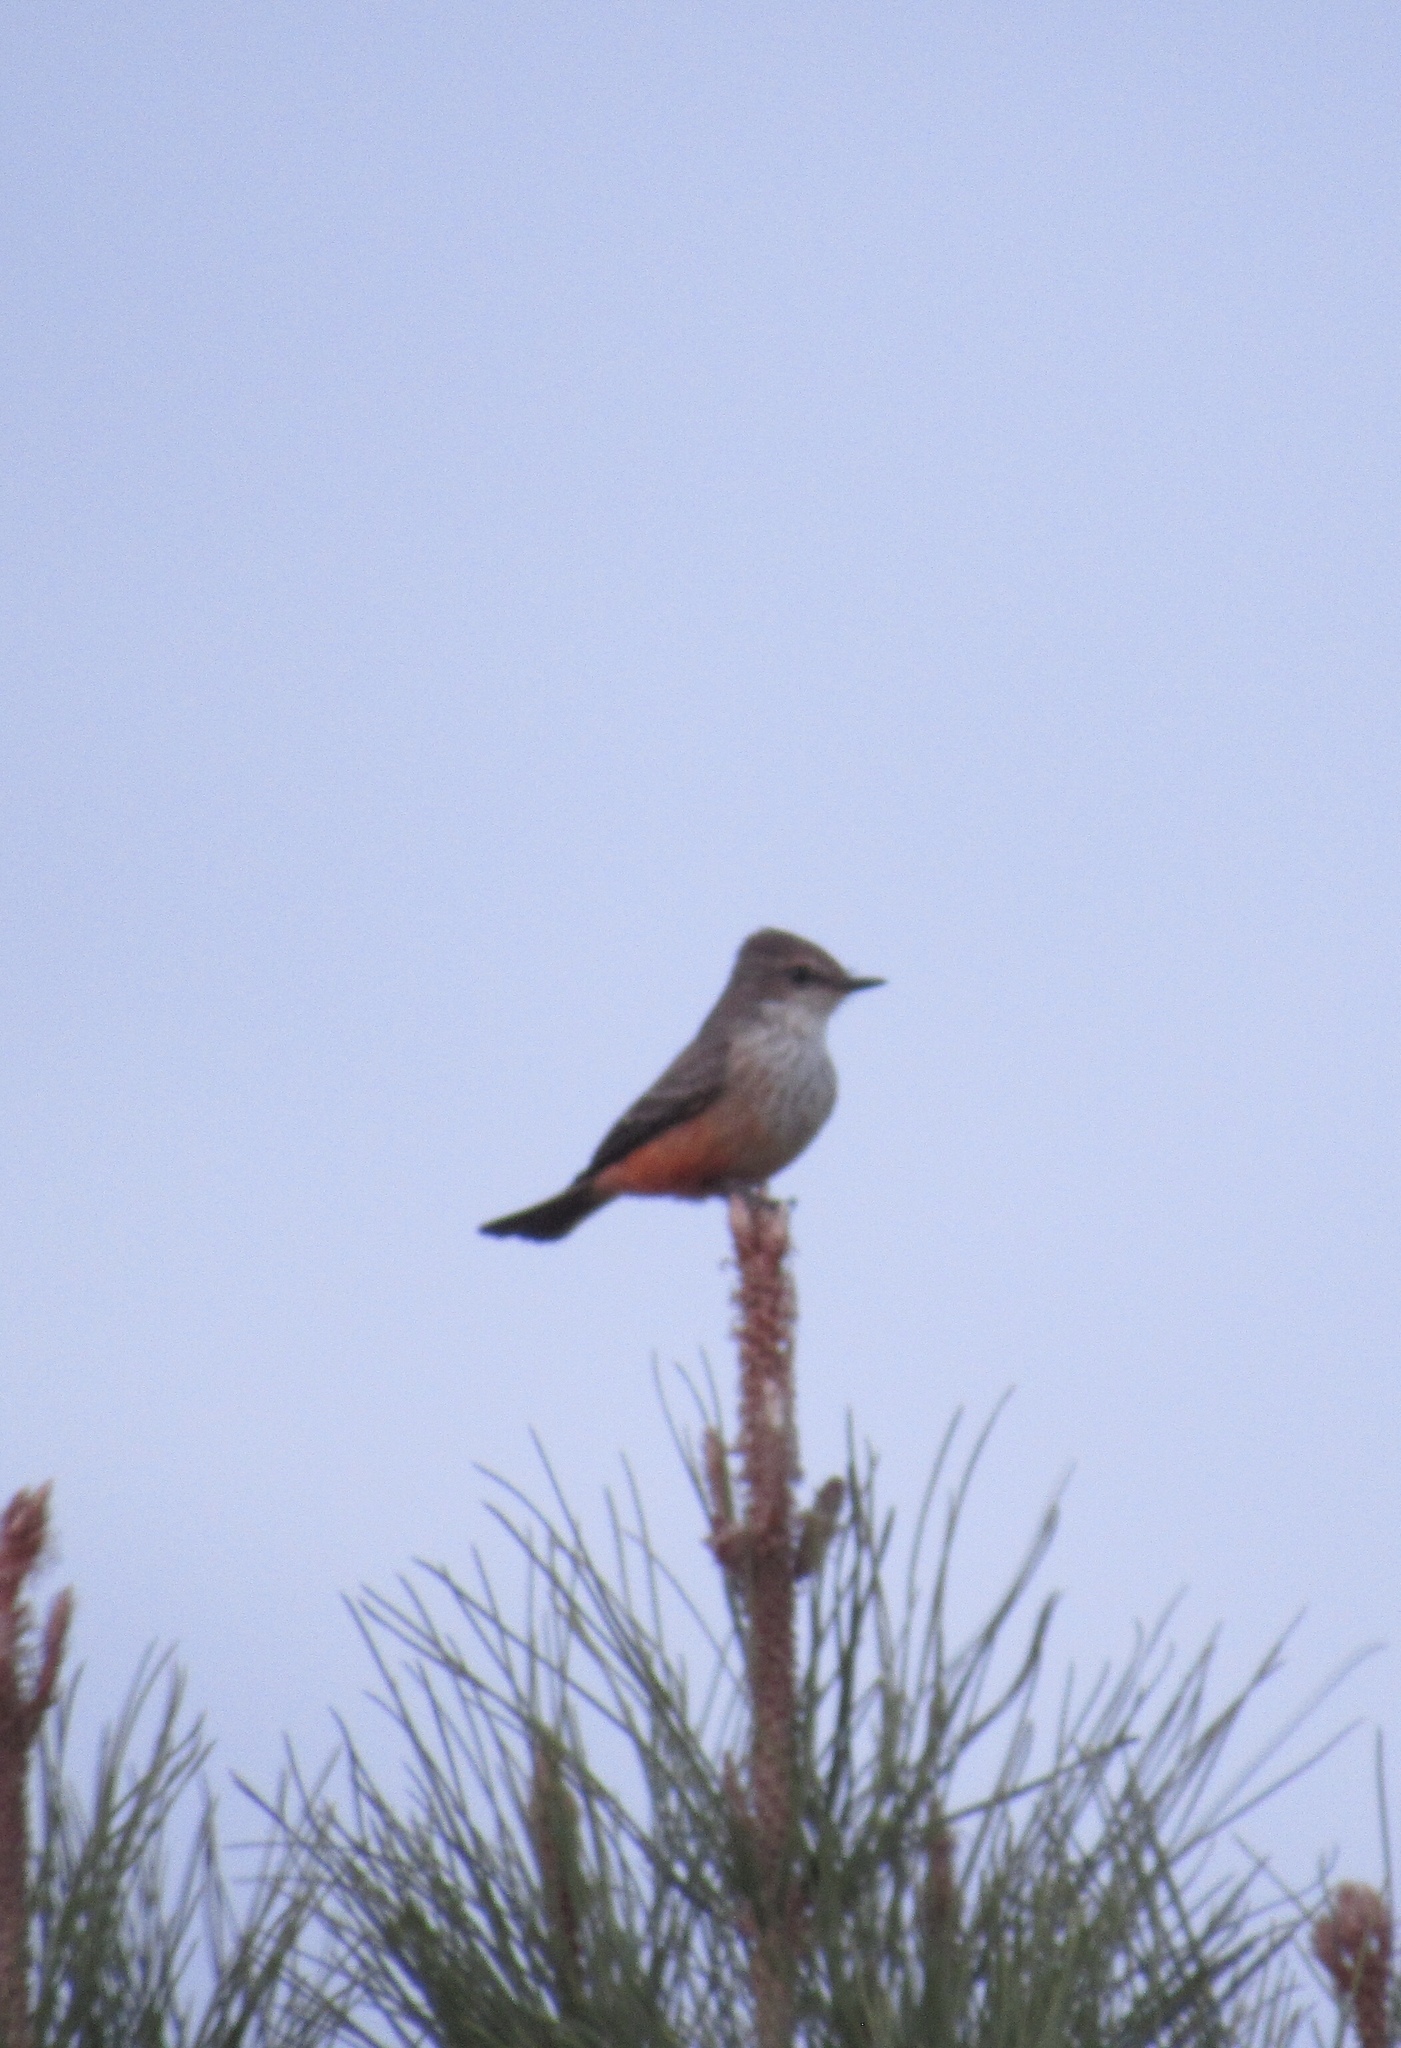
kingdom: Animalia
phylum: Chordata
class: Aves
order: Passeriformes
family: Tyrannidae
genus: Pyrocephalus
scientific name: Pyrocephalus rubinus
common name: Vermilion flycatcher
